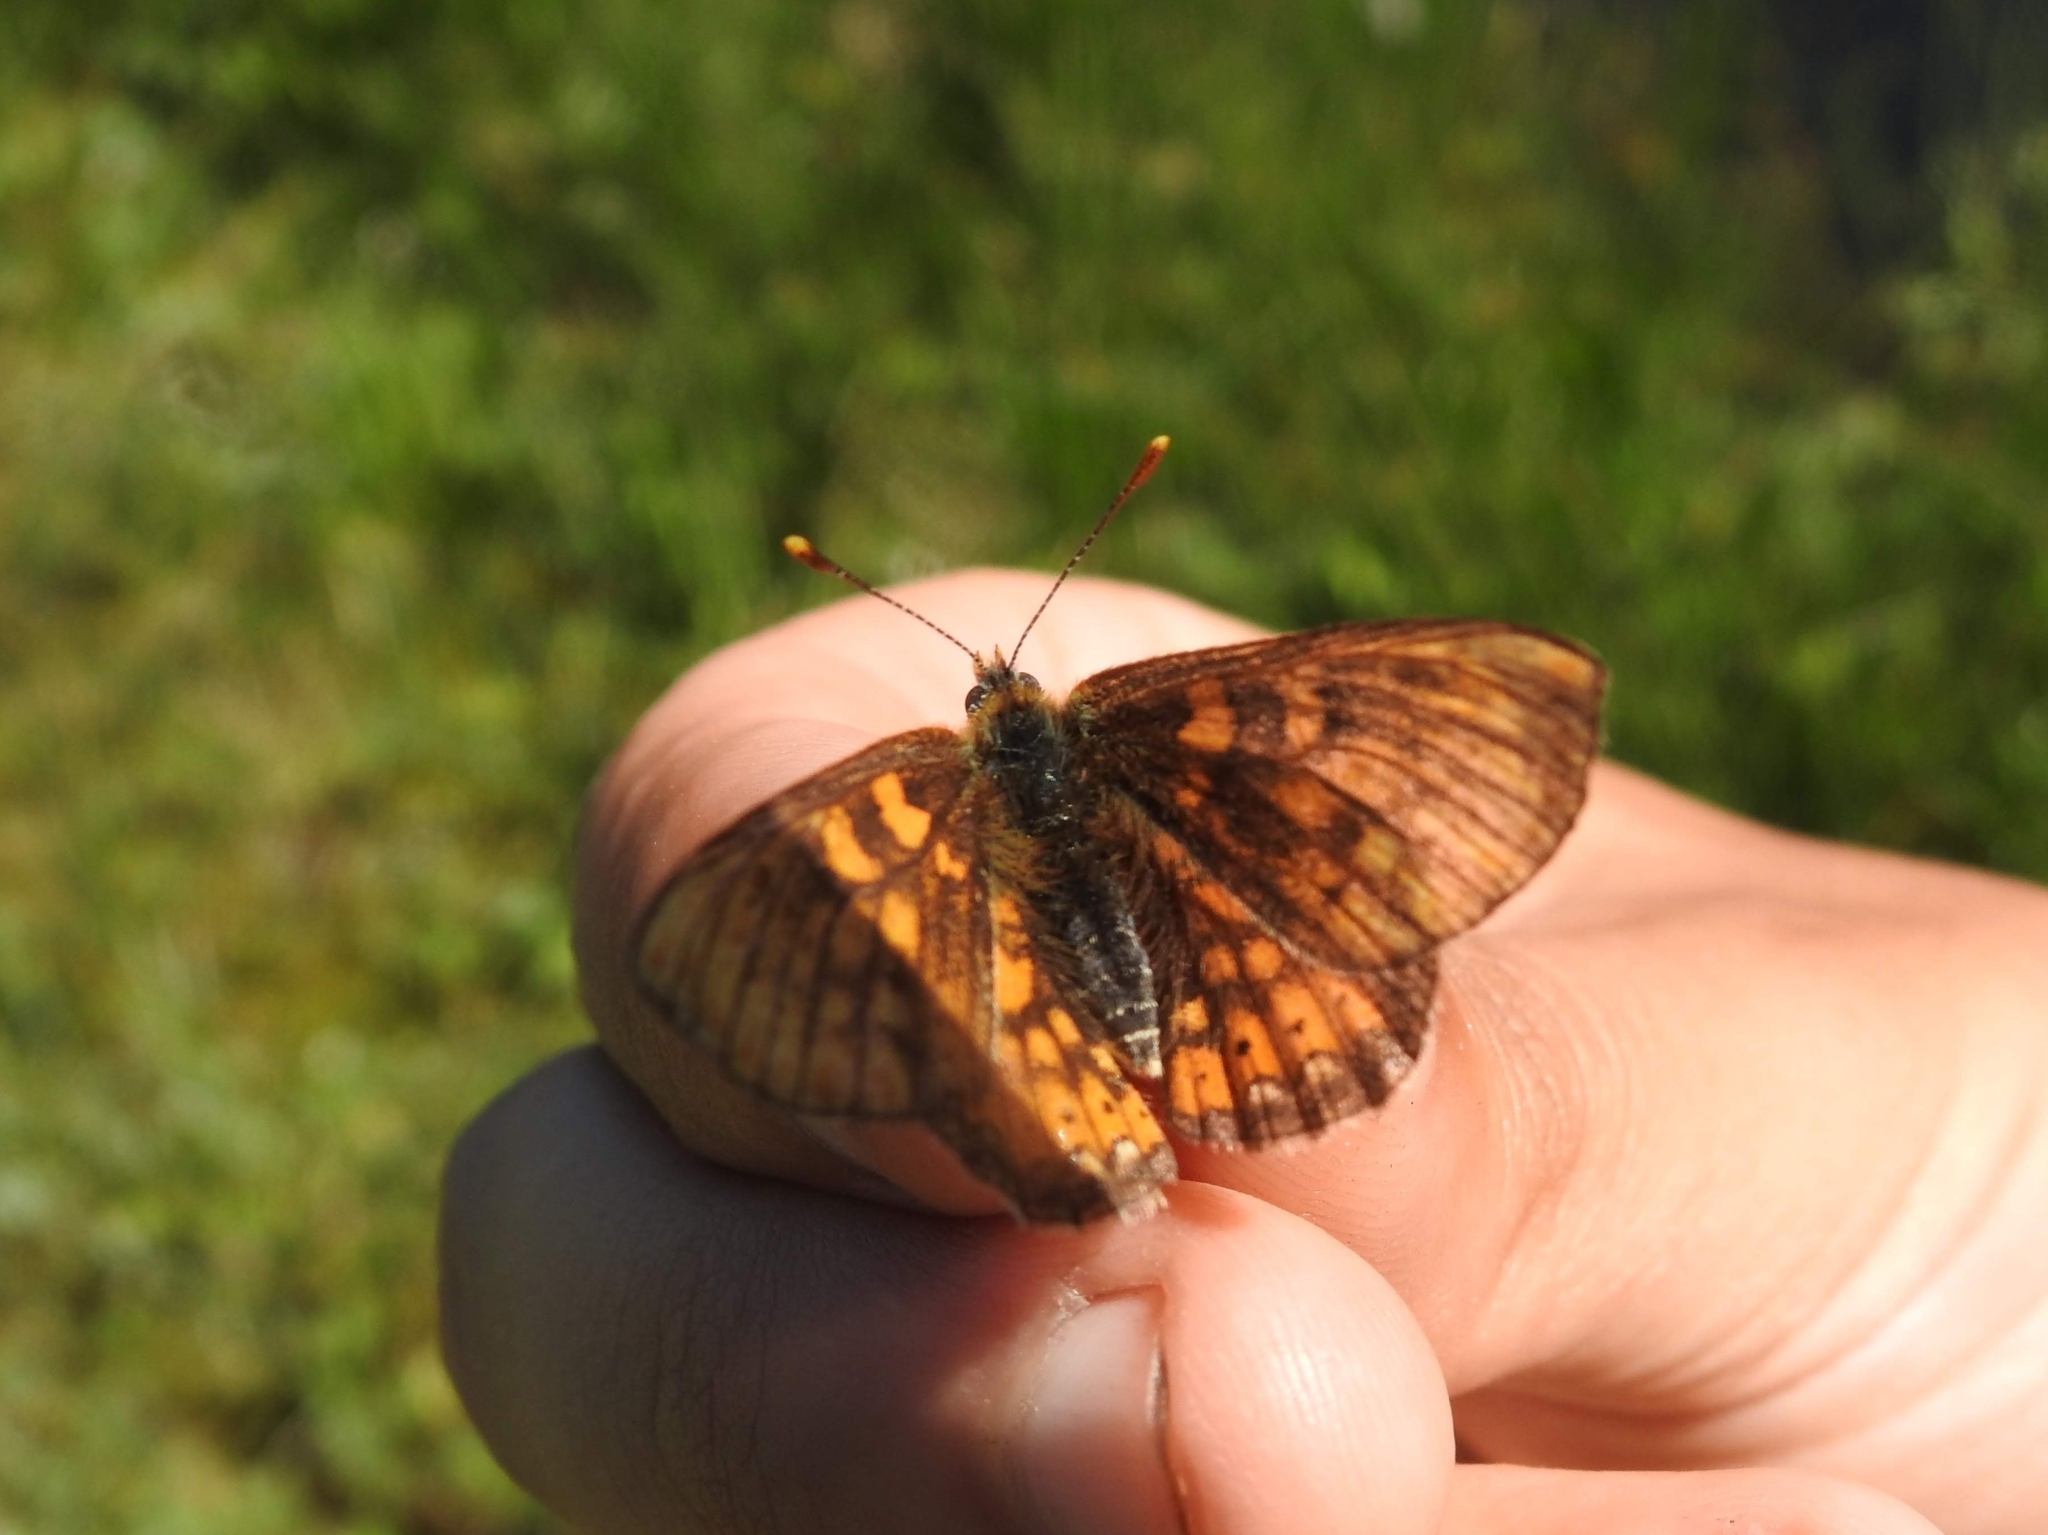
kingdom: Animalia
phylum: Arthropoda
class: Insecta
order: Lepidoptera
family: Nymphalidae
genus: Euphydryas
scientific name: Euphydryas aurinia
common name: Marsh fritillary
